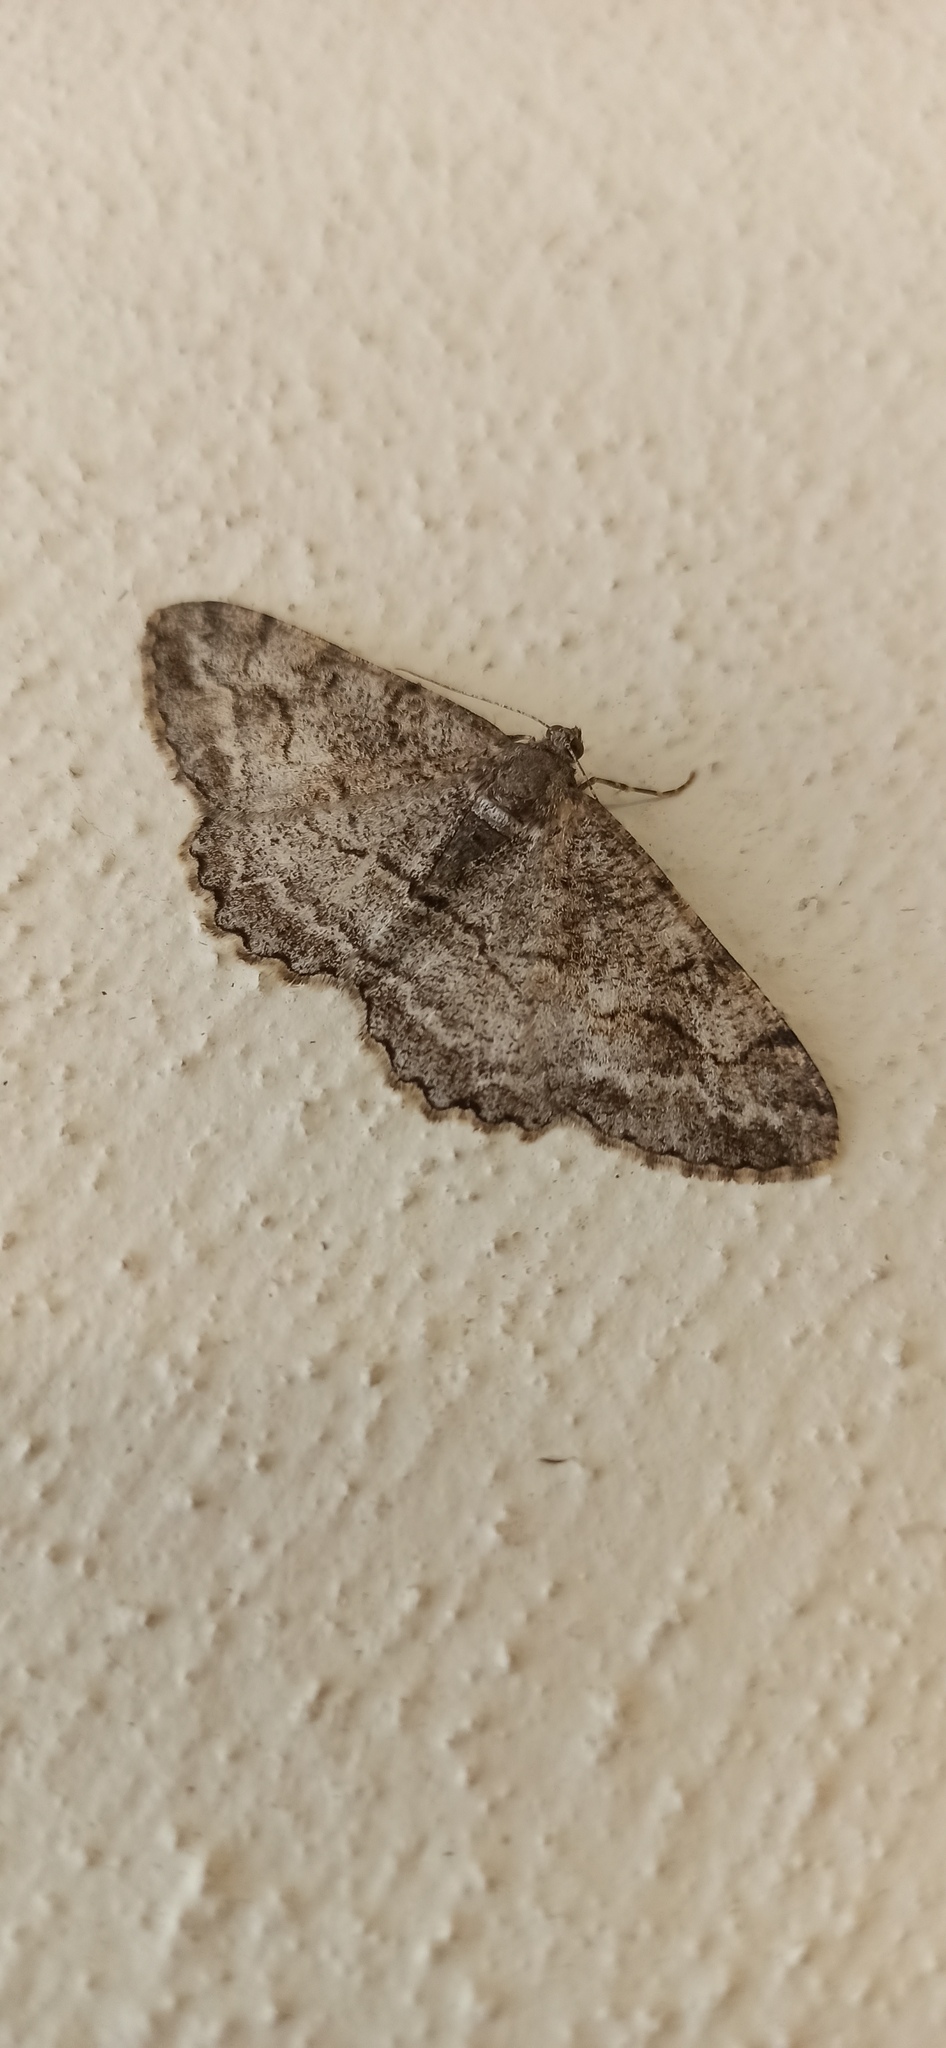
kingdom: Animalia
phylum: Arthropoda
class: Insecta
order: Lepidoptera
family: Geometridae
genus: Alcis
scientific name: Alcis repandata
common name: Mottled beauty
